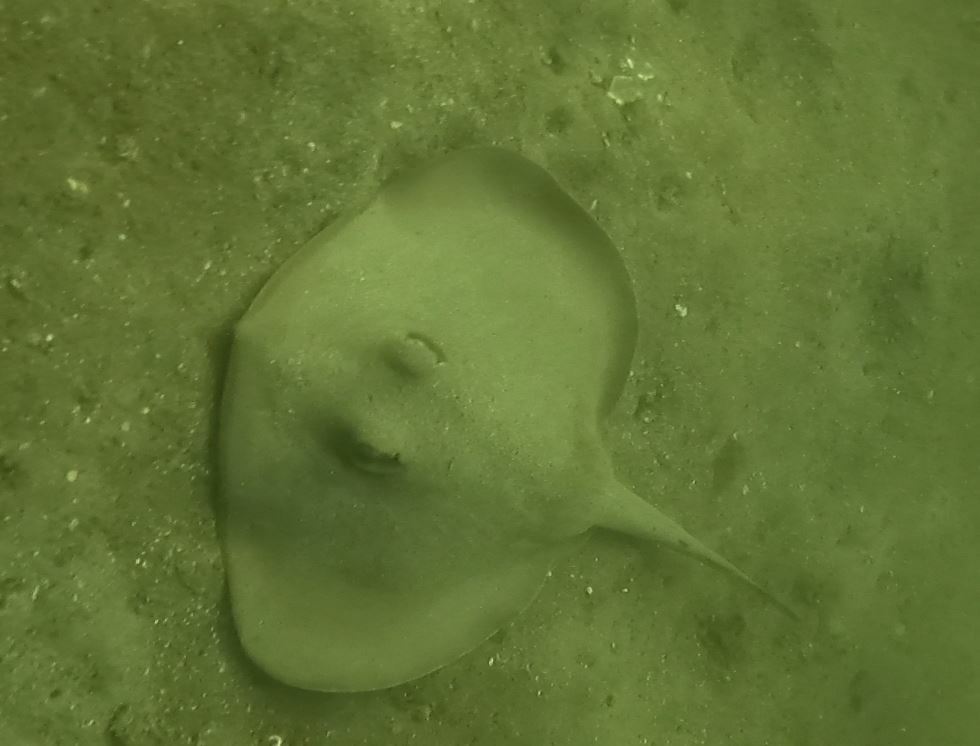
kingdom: Animalia
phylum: Chordata
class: Elasmobranchii
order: Myliobatiformes
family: Urolophidae
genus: Trygonoptera
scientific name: Trygonoptera testacea
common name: Common stingaree
